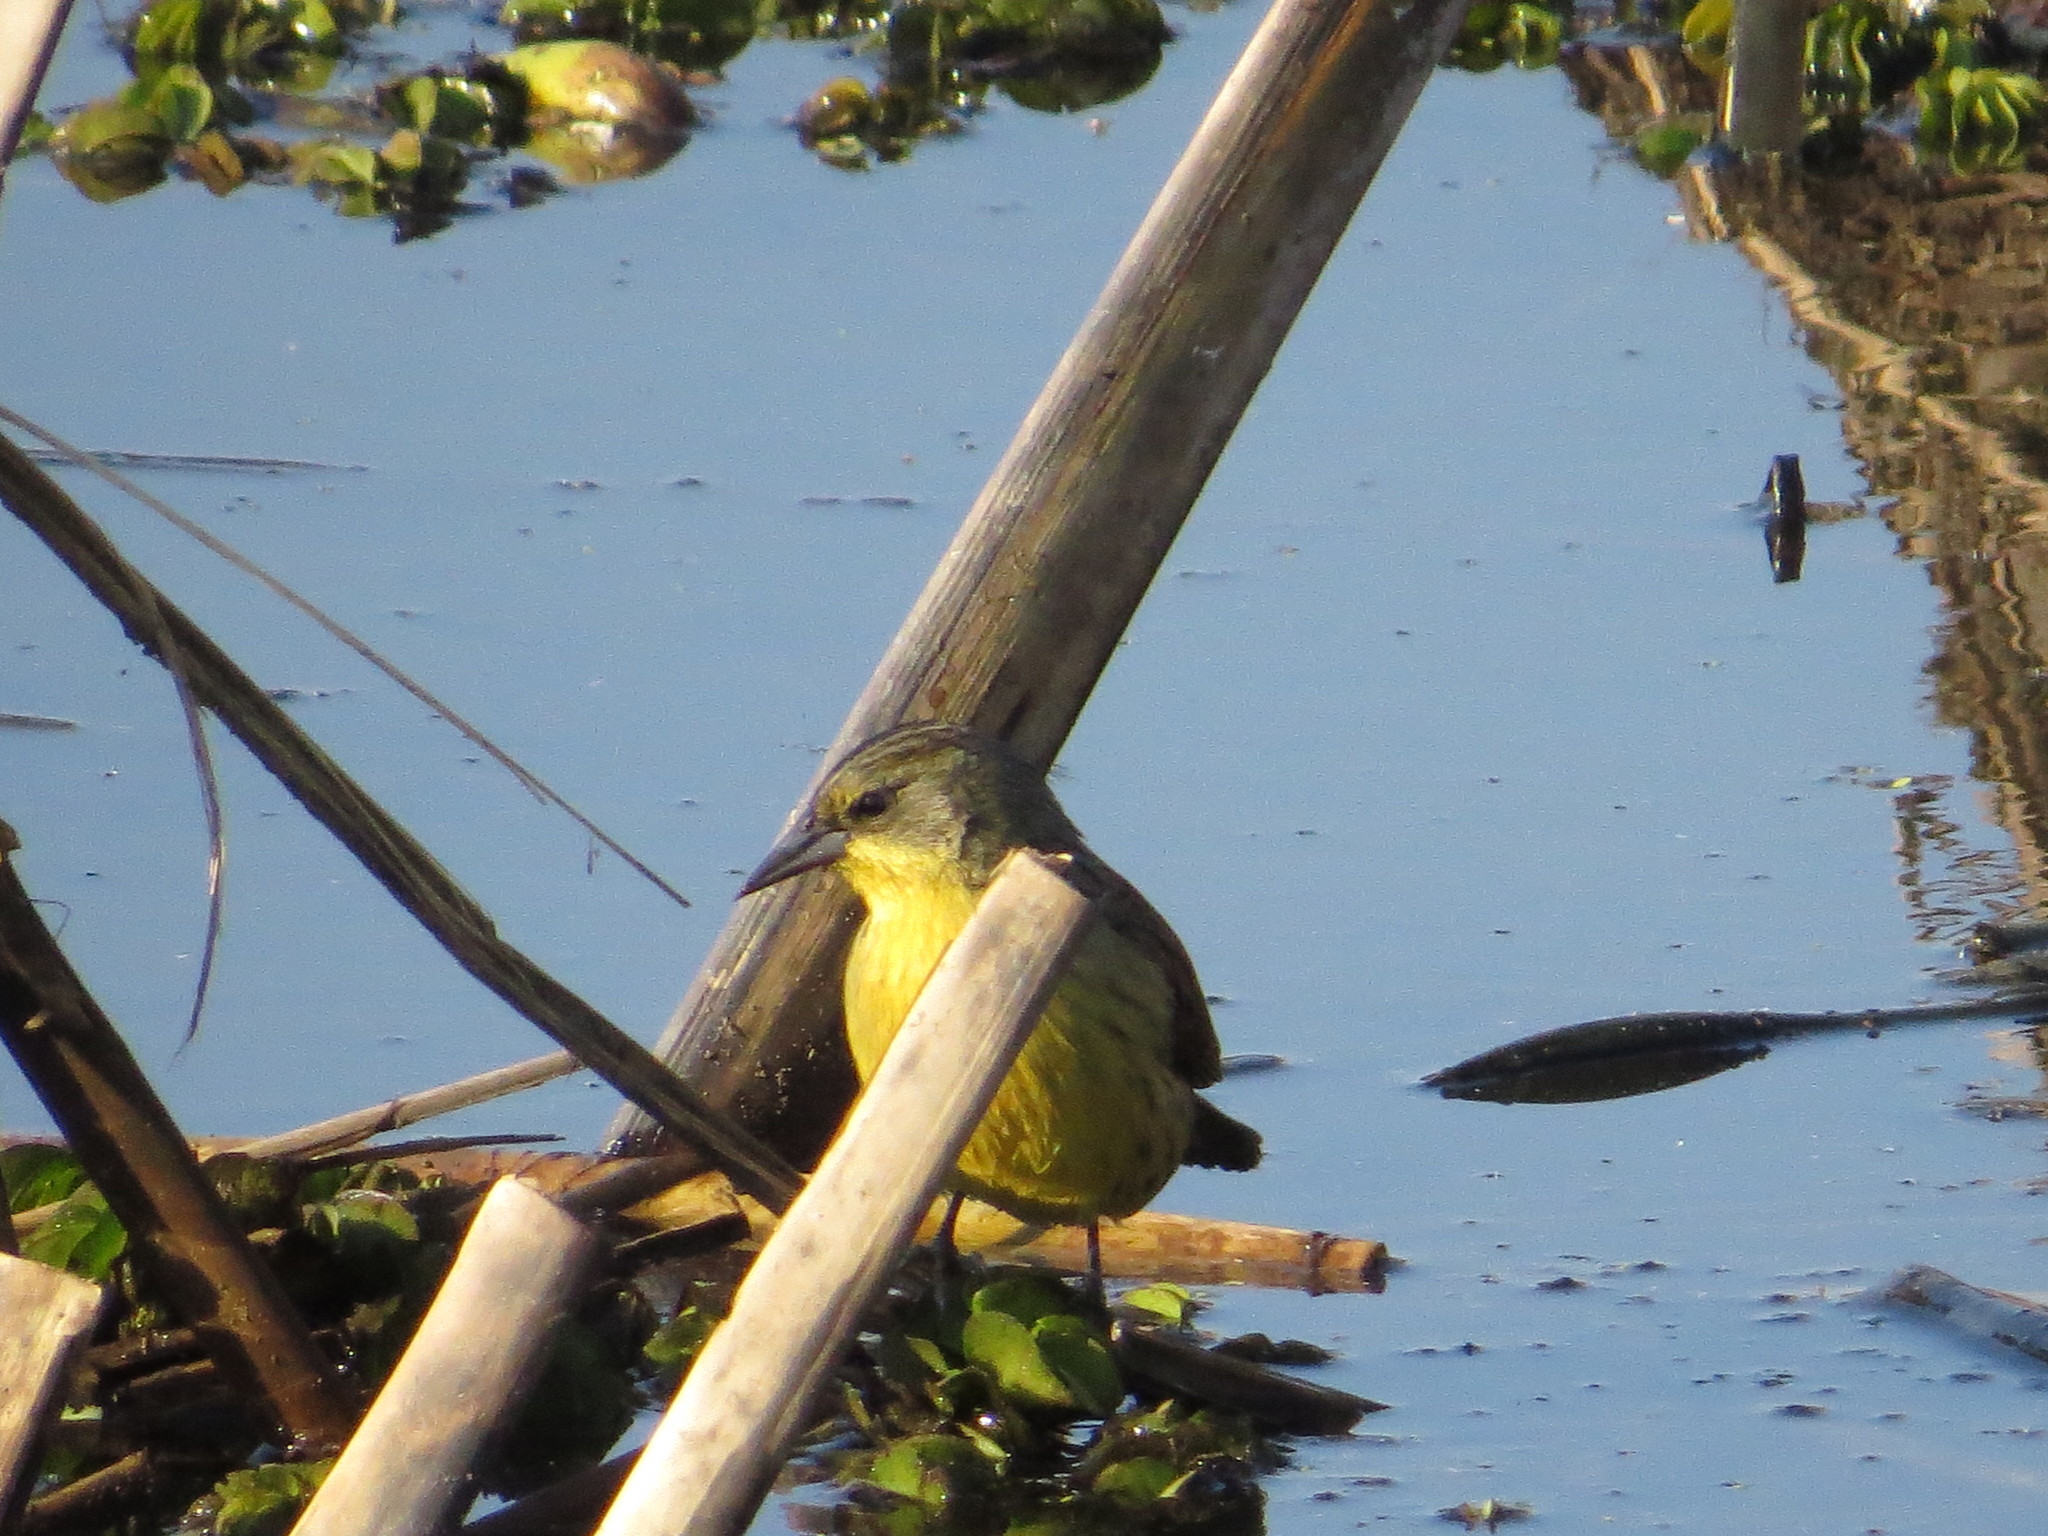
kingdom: Animalia
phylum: Chordata
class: Aves
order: Passeriformes
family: Icteridae
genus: Agelasticus
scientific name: Agelasticus cyanopus
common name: Unicolored blackbird
